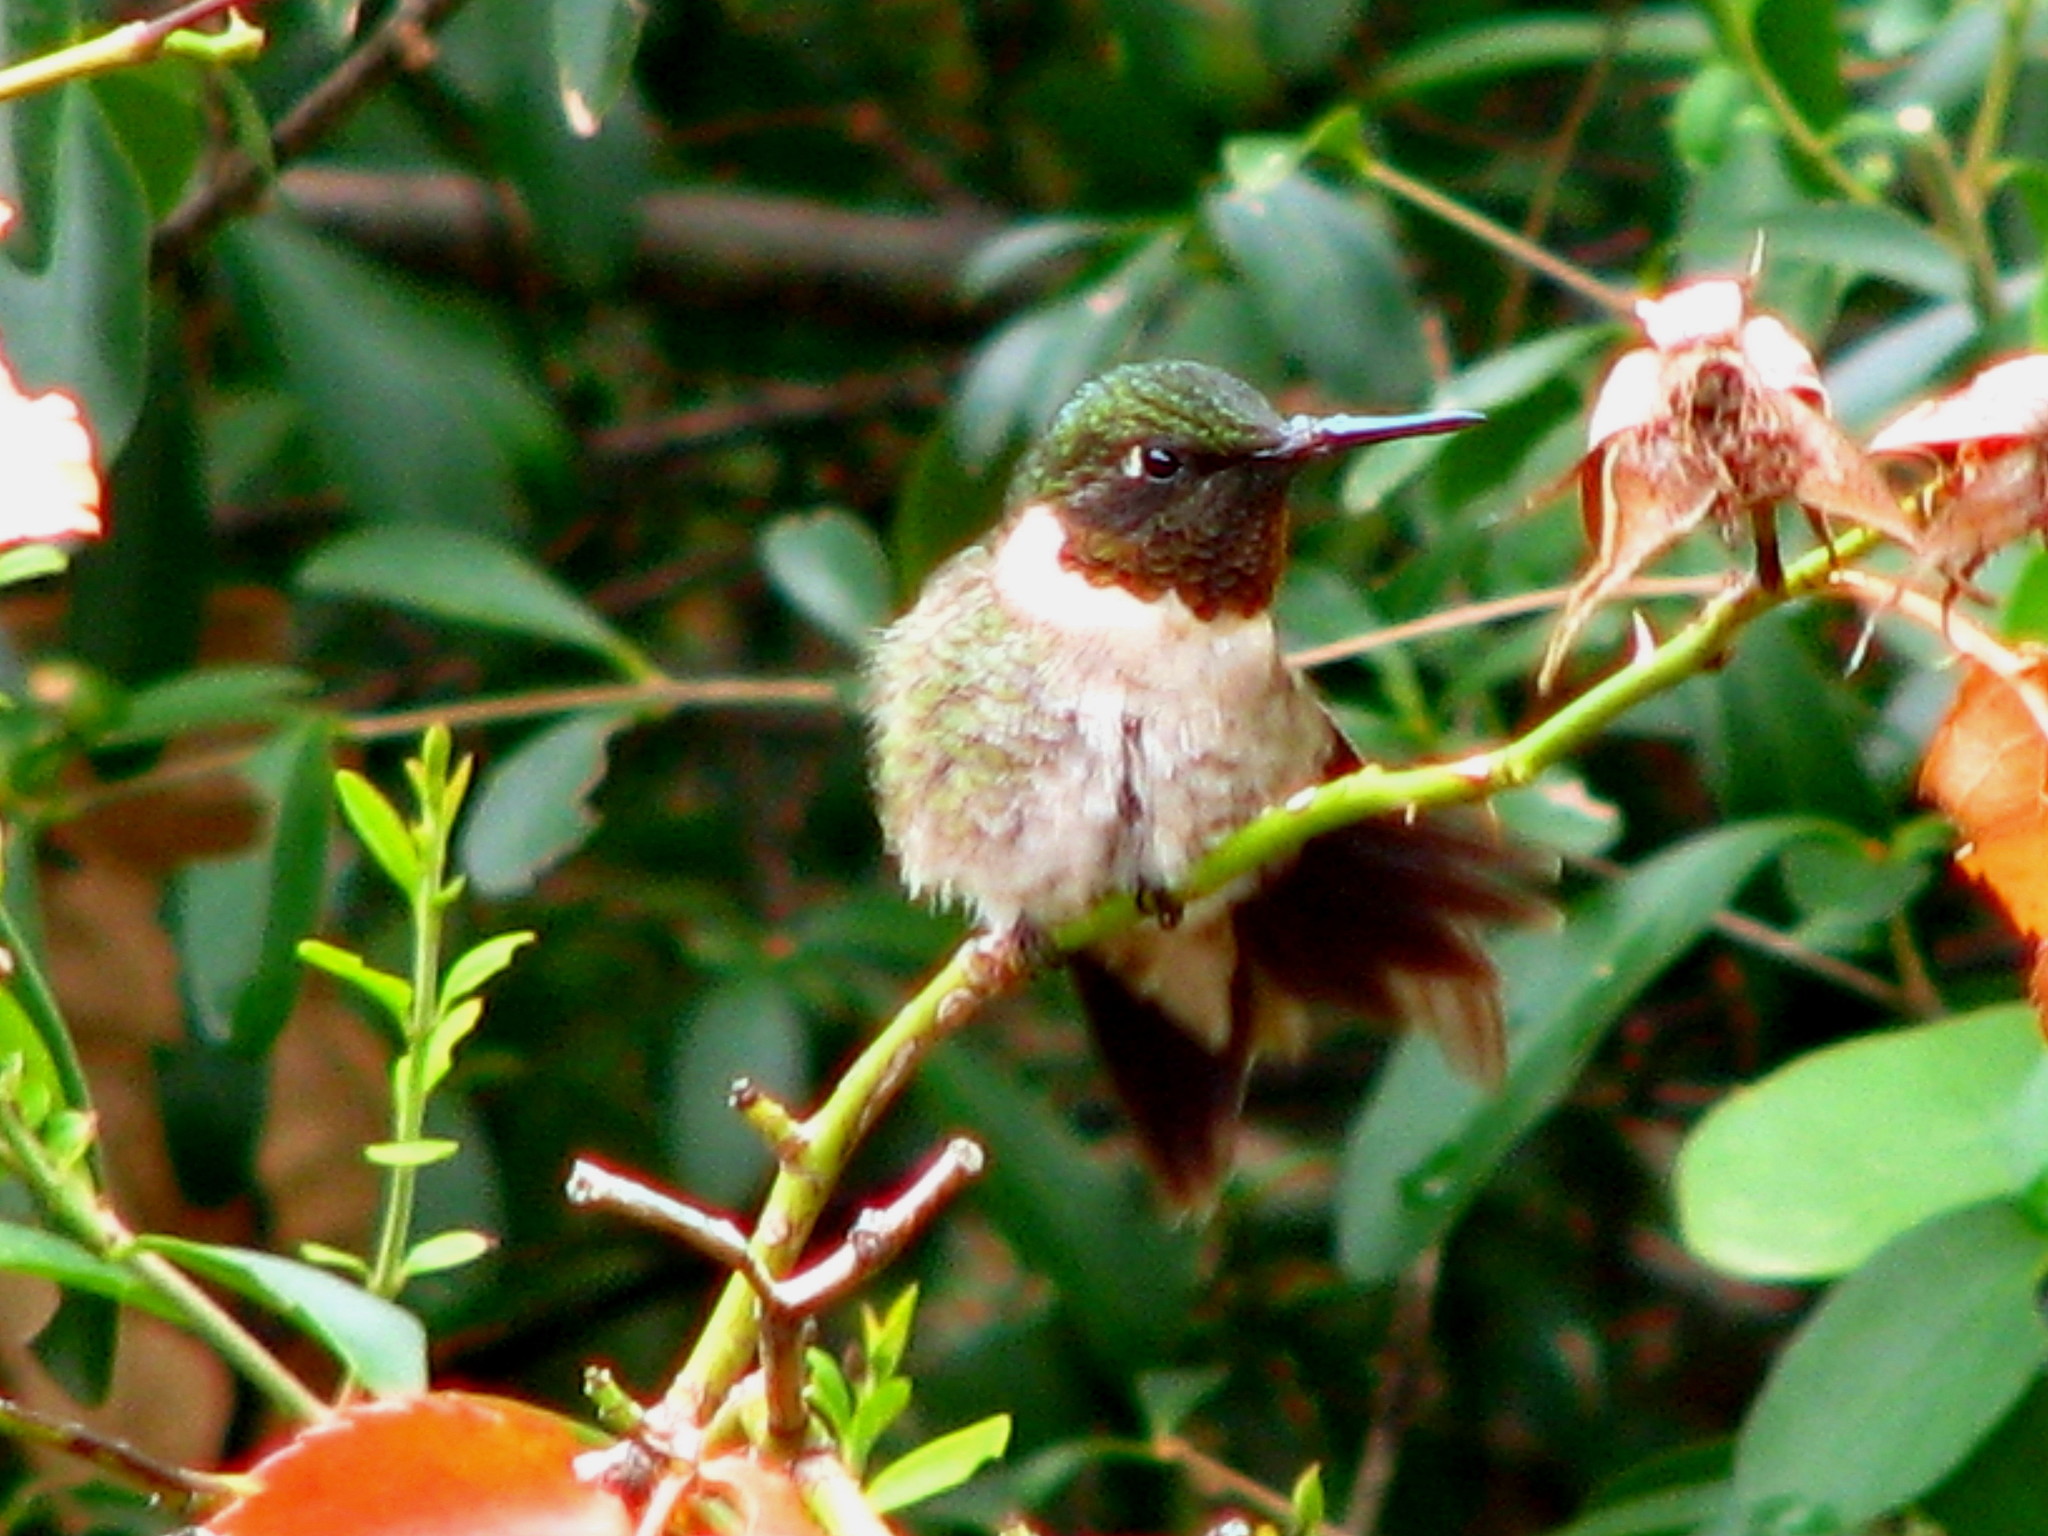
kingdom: Animalia
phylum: Chordata
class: Aves
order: Apodiformes
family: Trochilidae
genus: Archilochus
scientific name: Archilochus colubris
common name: Ruby-throated hummingbird
